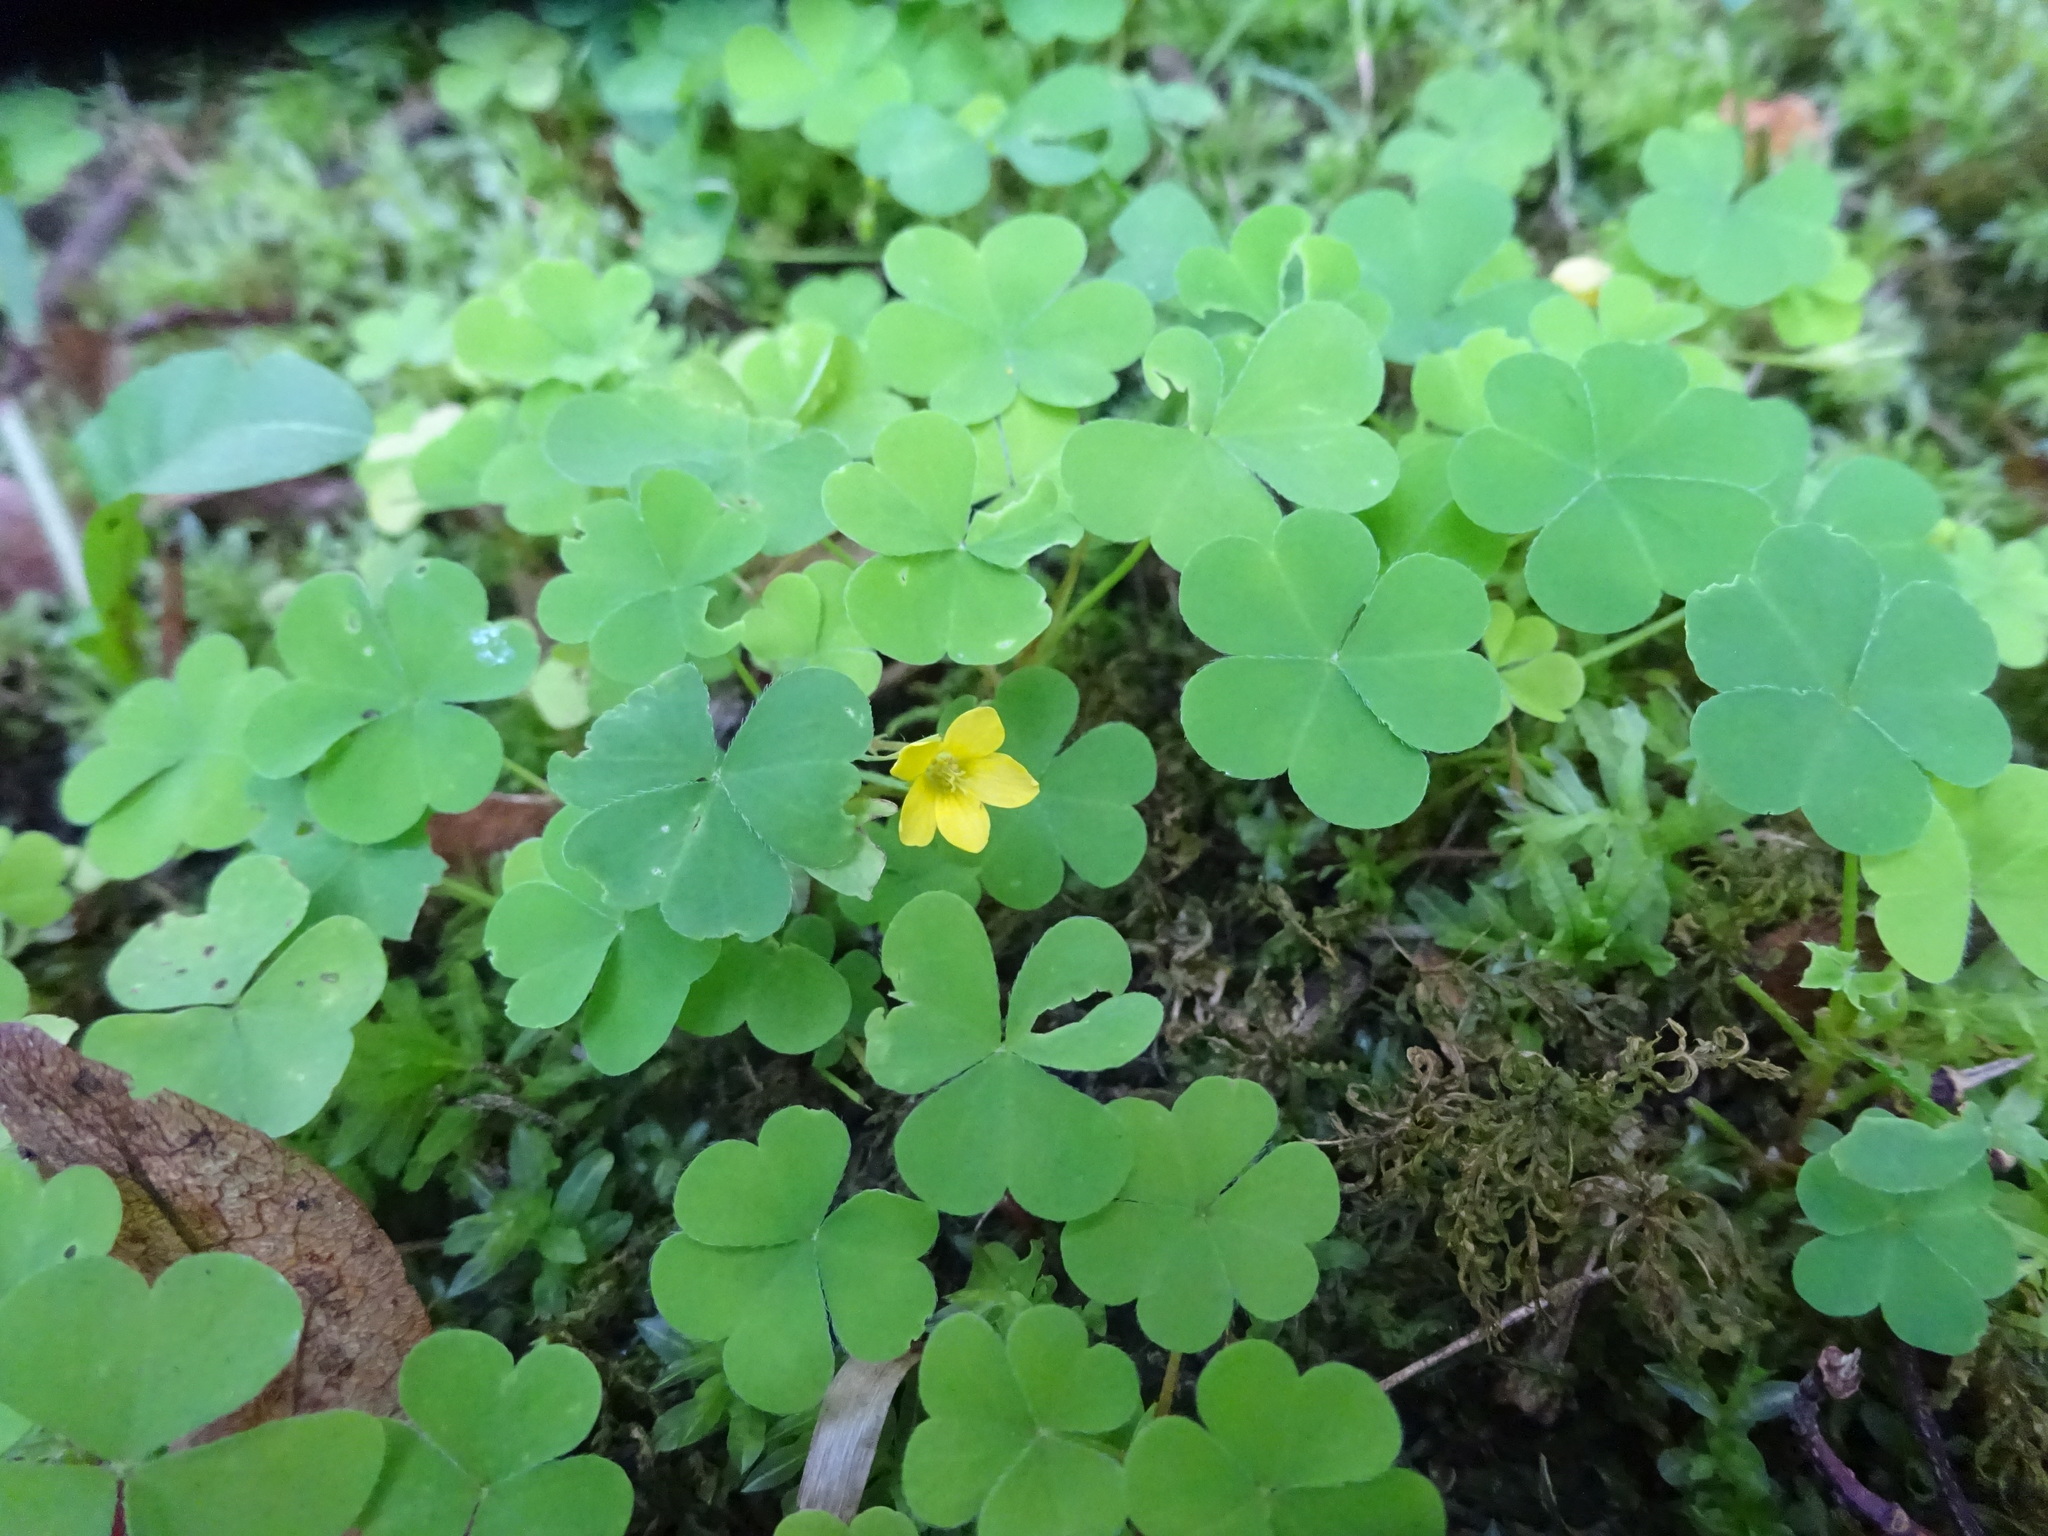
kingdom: Plantae
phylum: Tracheophyta
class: Magnoliopsida
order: Oxalidales
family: Oxalidaceae
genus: Oxalis
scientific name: Oxalis stricta
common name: Upright yellow-sorrel
